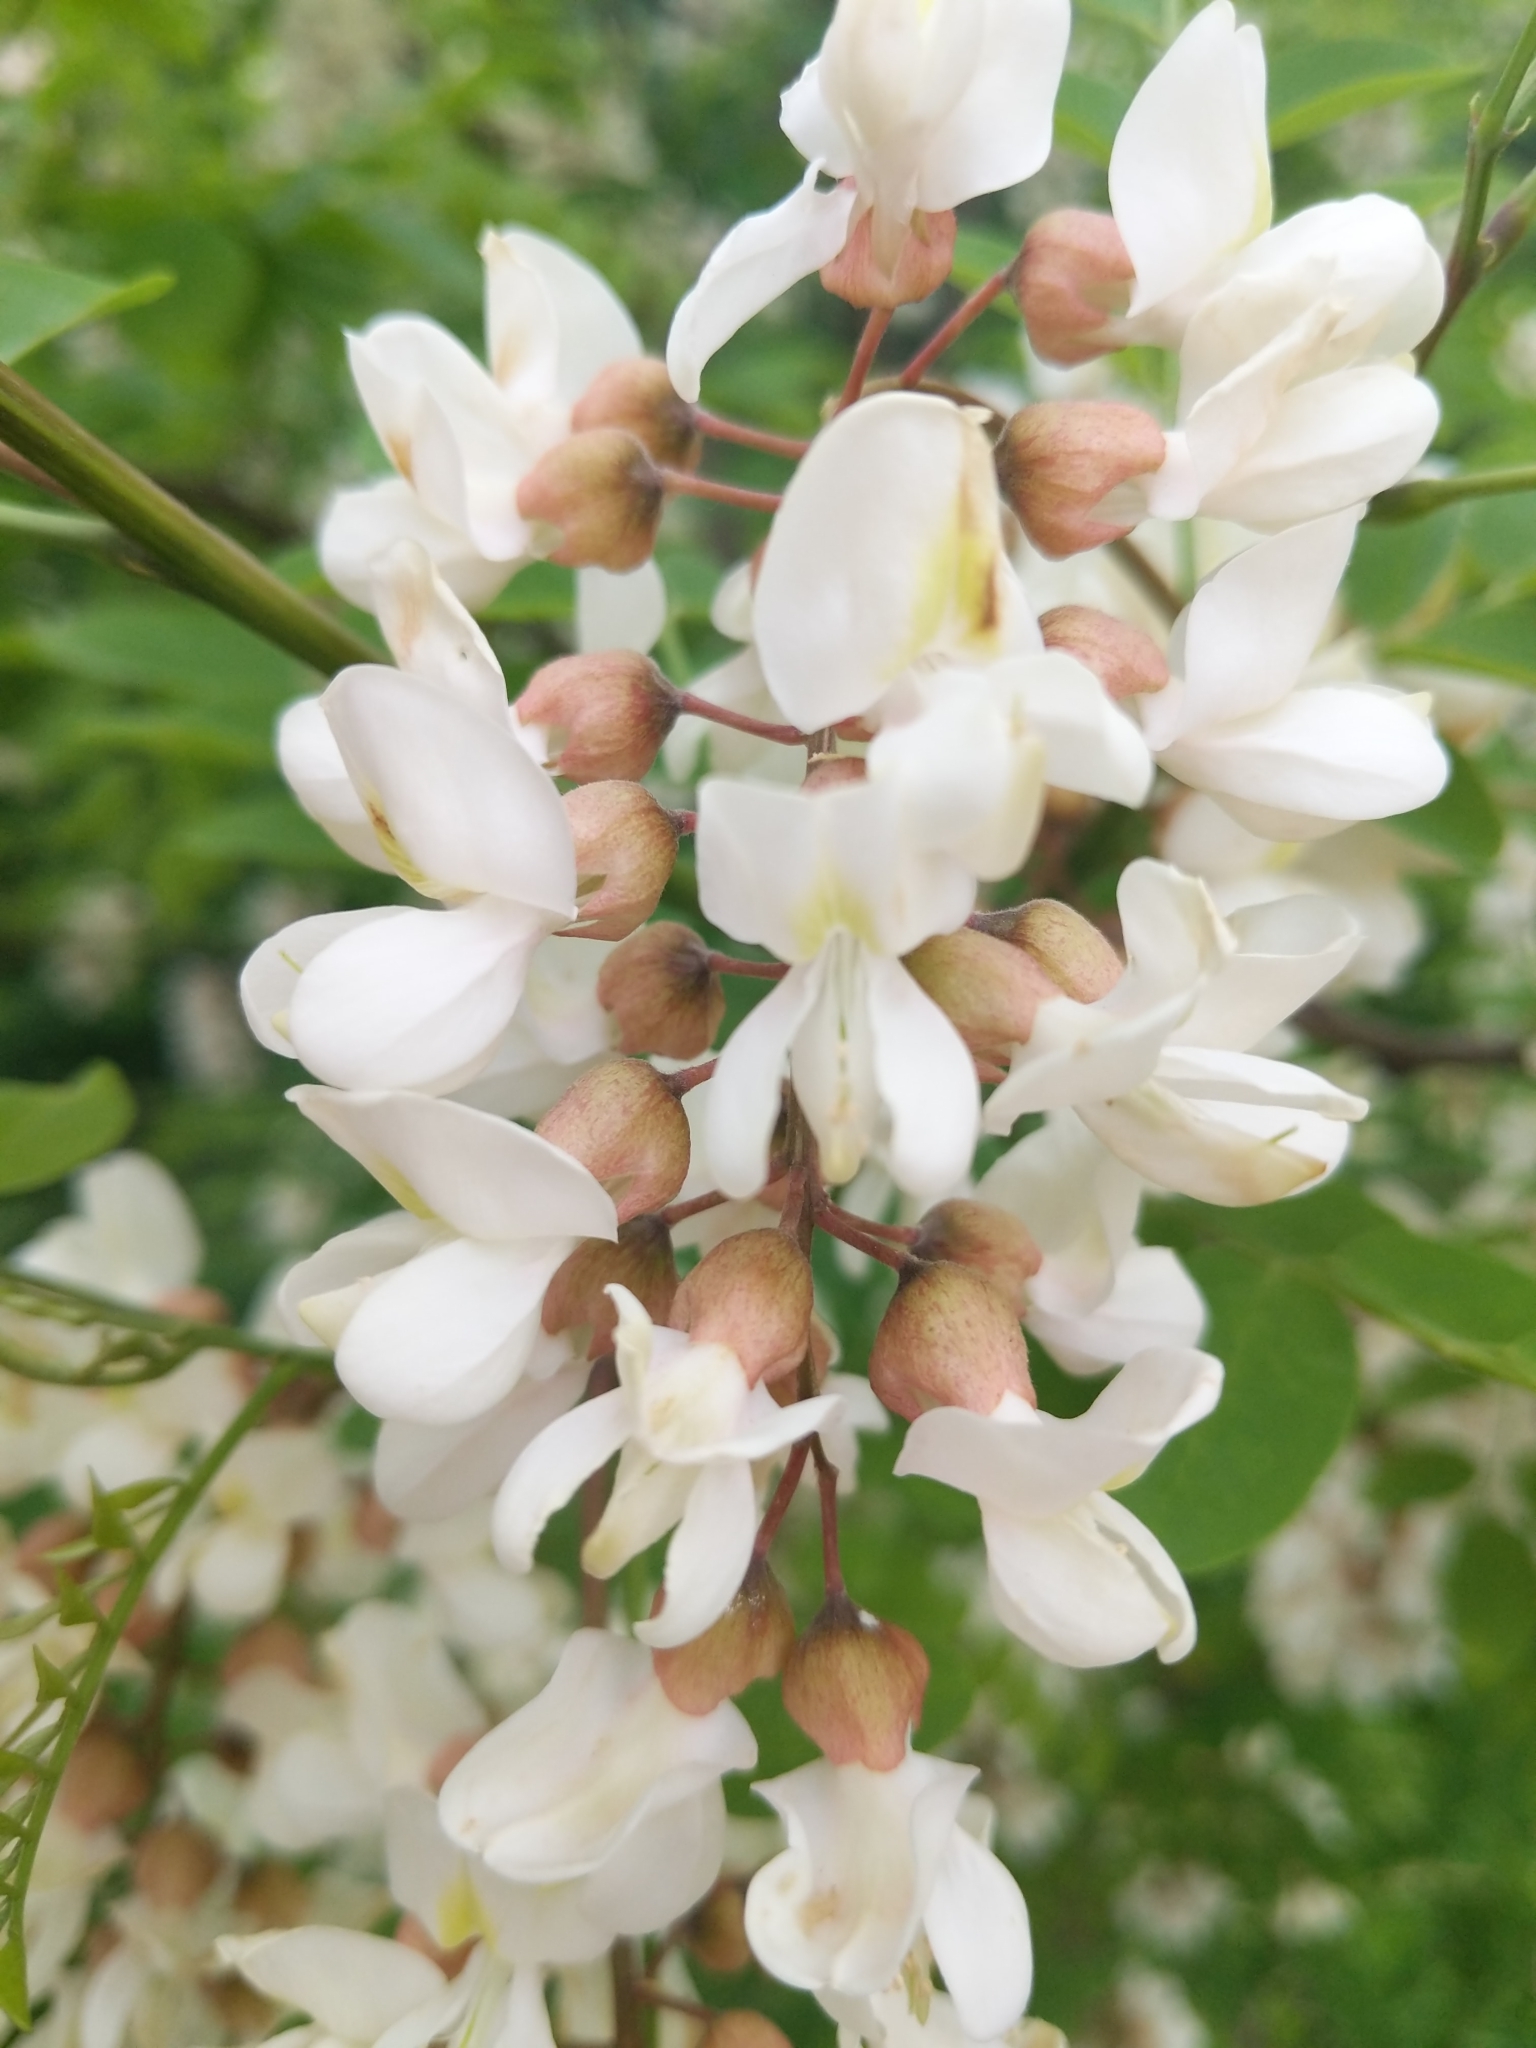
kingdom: Plantae
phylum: Tracheophyta
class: Magnoliopsida
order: Fabales
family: Fabaceae
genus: Robinia
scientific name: Robinia pseudoacacia
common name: Black locust
